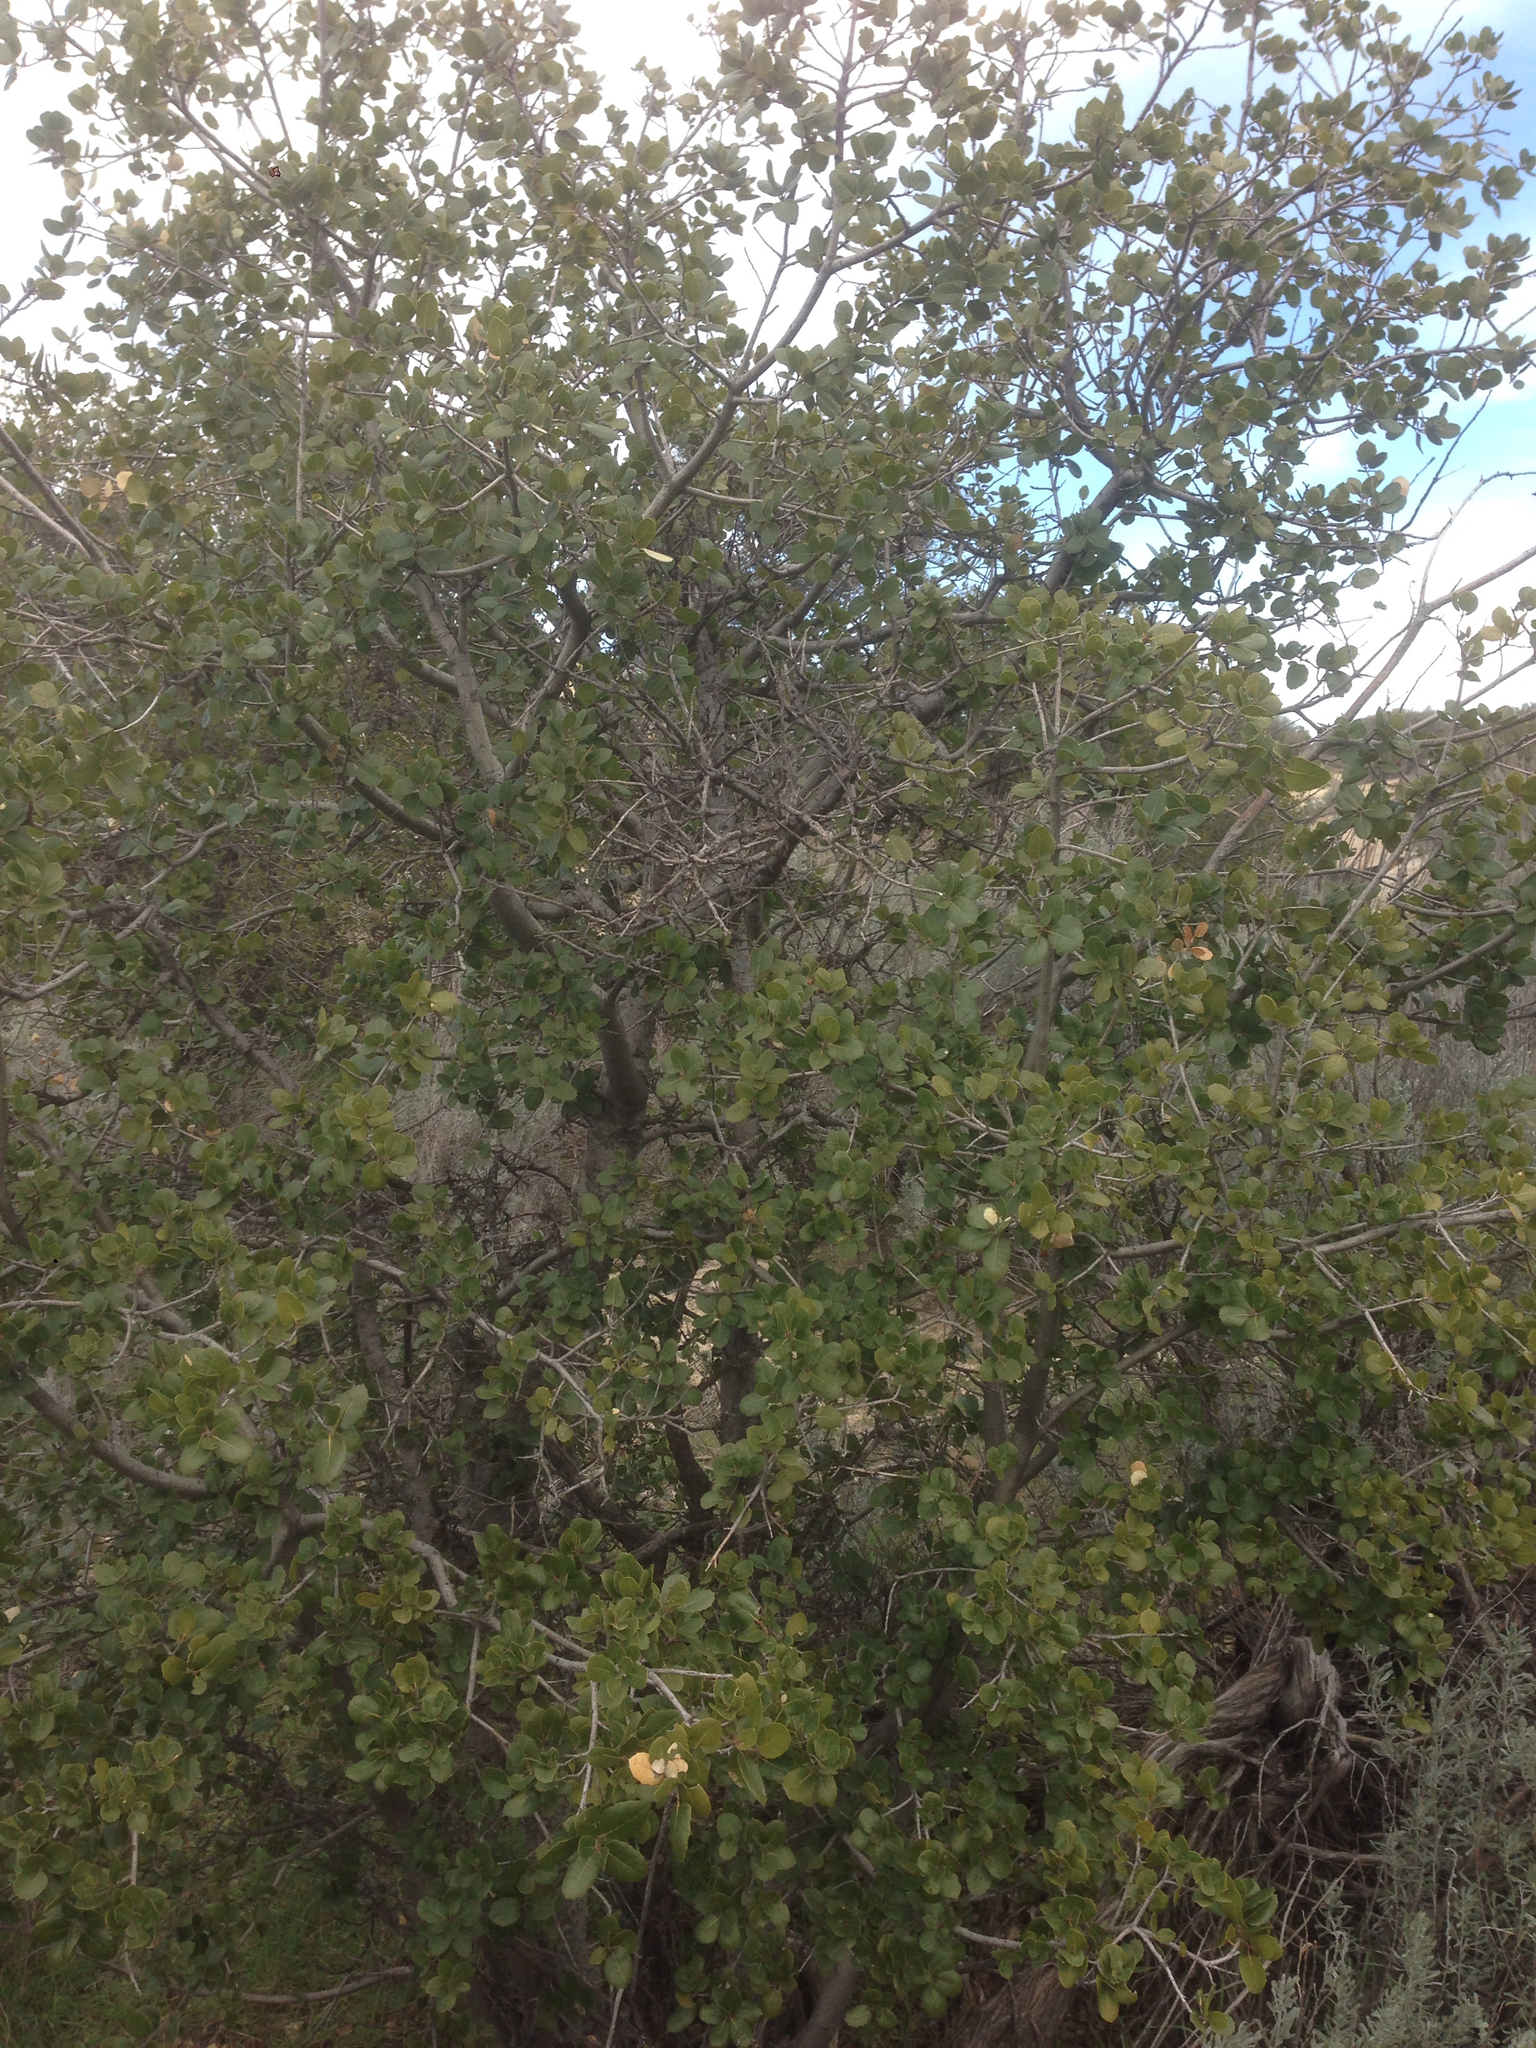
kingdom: Plantae
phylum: Tracheophyta
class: Magnoliopsida
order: Fagales
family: Fagaceae
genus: Quercus
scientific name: Quercus wislizeni
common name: Interior live oak
